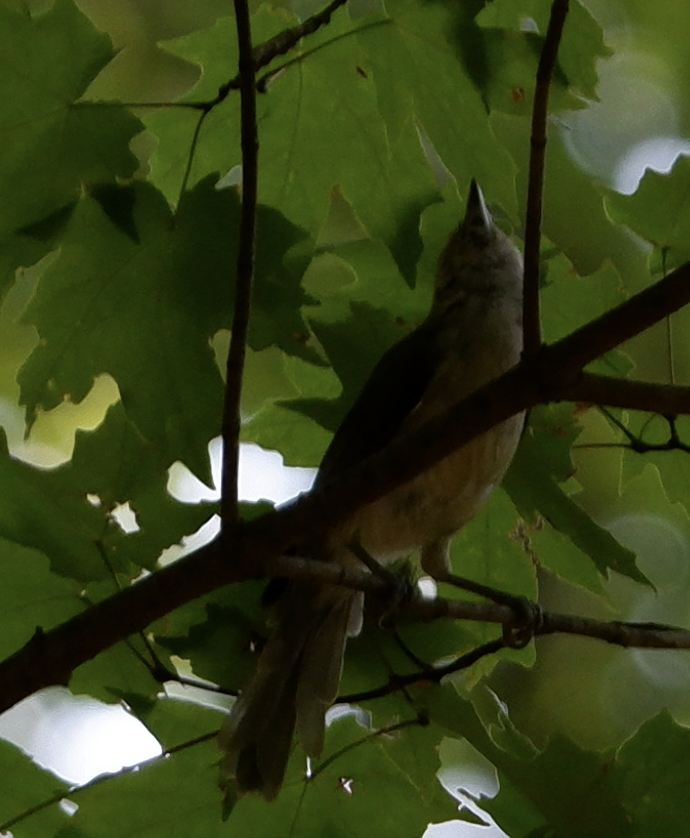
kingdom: Animalia
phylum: Chordata
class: Aves
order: Passeriformes
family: Paridae
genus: Baeolophus
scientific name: Baeolophus bicolor
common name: Tufted titmouse
